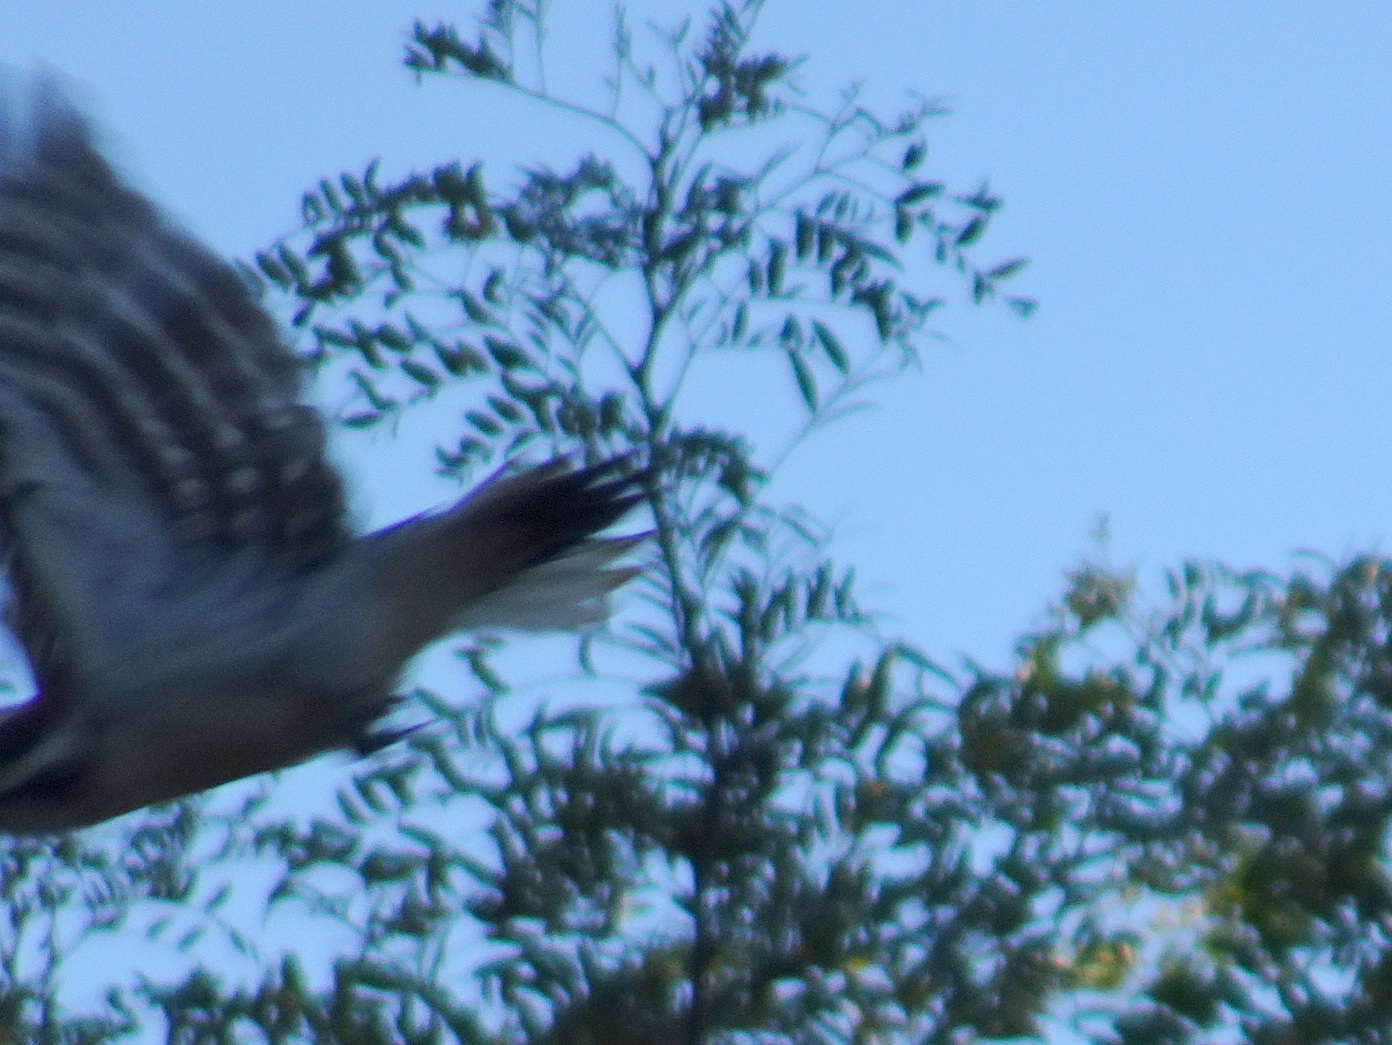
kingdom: Animalia
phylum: Chordata
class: Aves
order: Piciformes
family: Picidae
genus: Leuconotopicus
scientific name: Leuconotopicus villosus
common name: Hairy woodpecker
